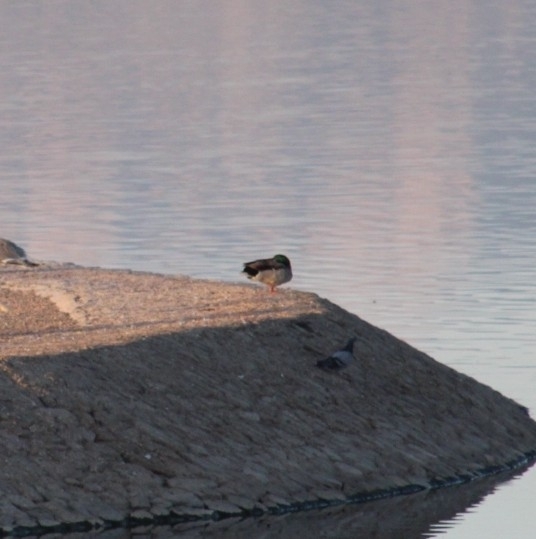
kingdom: Animalia
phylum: Chordata
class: Aves
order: Anseriformes
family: Anatidae
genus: Anas
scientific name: Anas platyrhynchos
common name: Mallard
